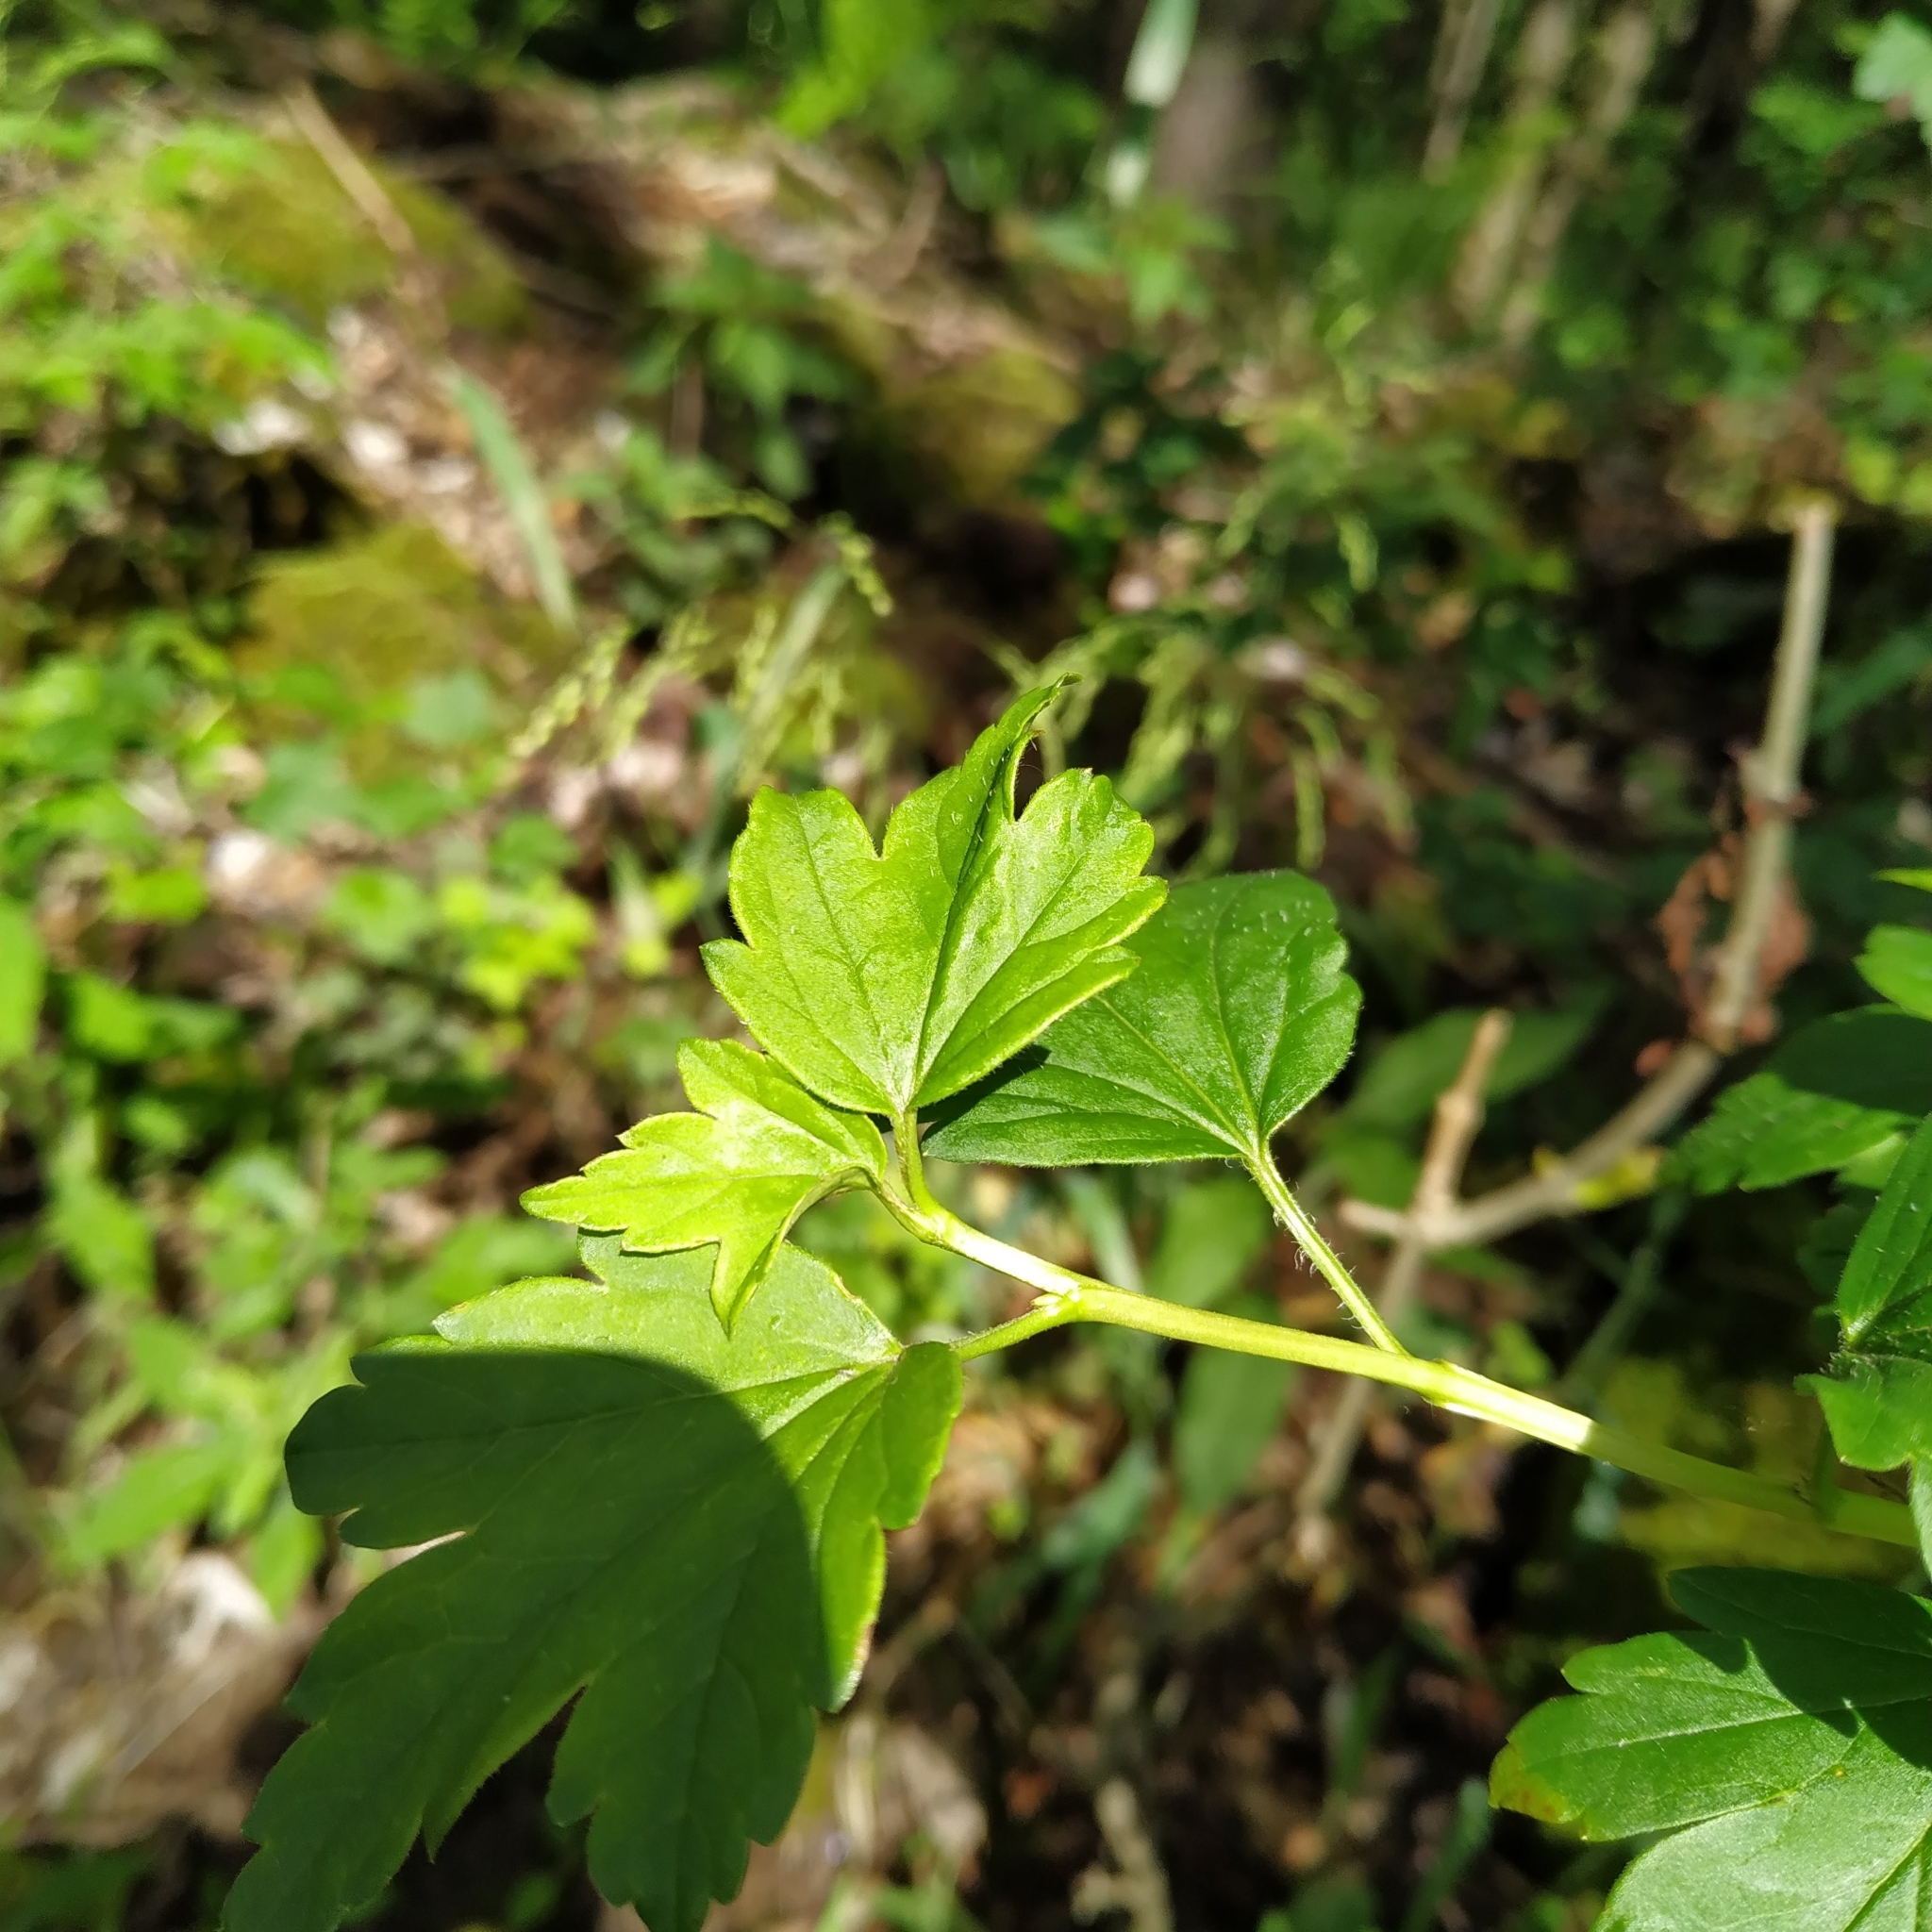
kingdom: Plantae
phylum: Tracheophyta
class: Magnoliopsida
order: Saxifragales
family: Grossulariaceae
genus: Ribes
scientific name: Ribes alpinum
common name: Alpine currant
